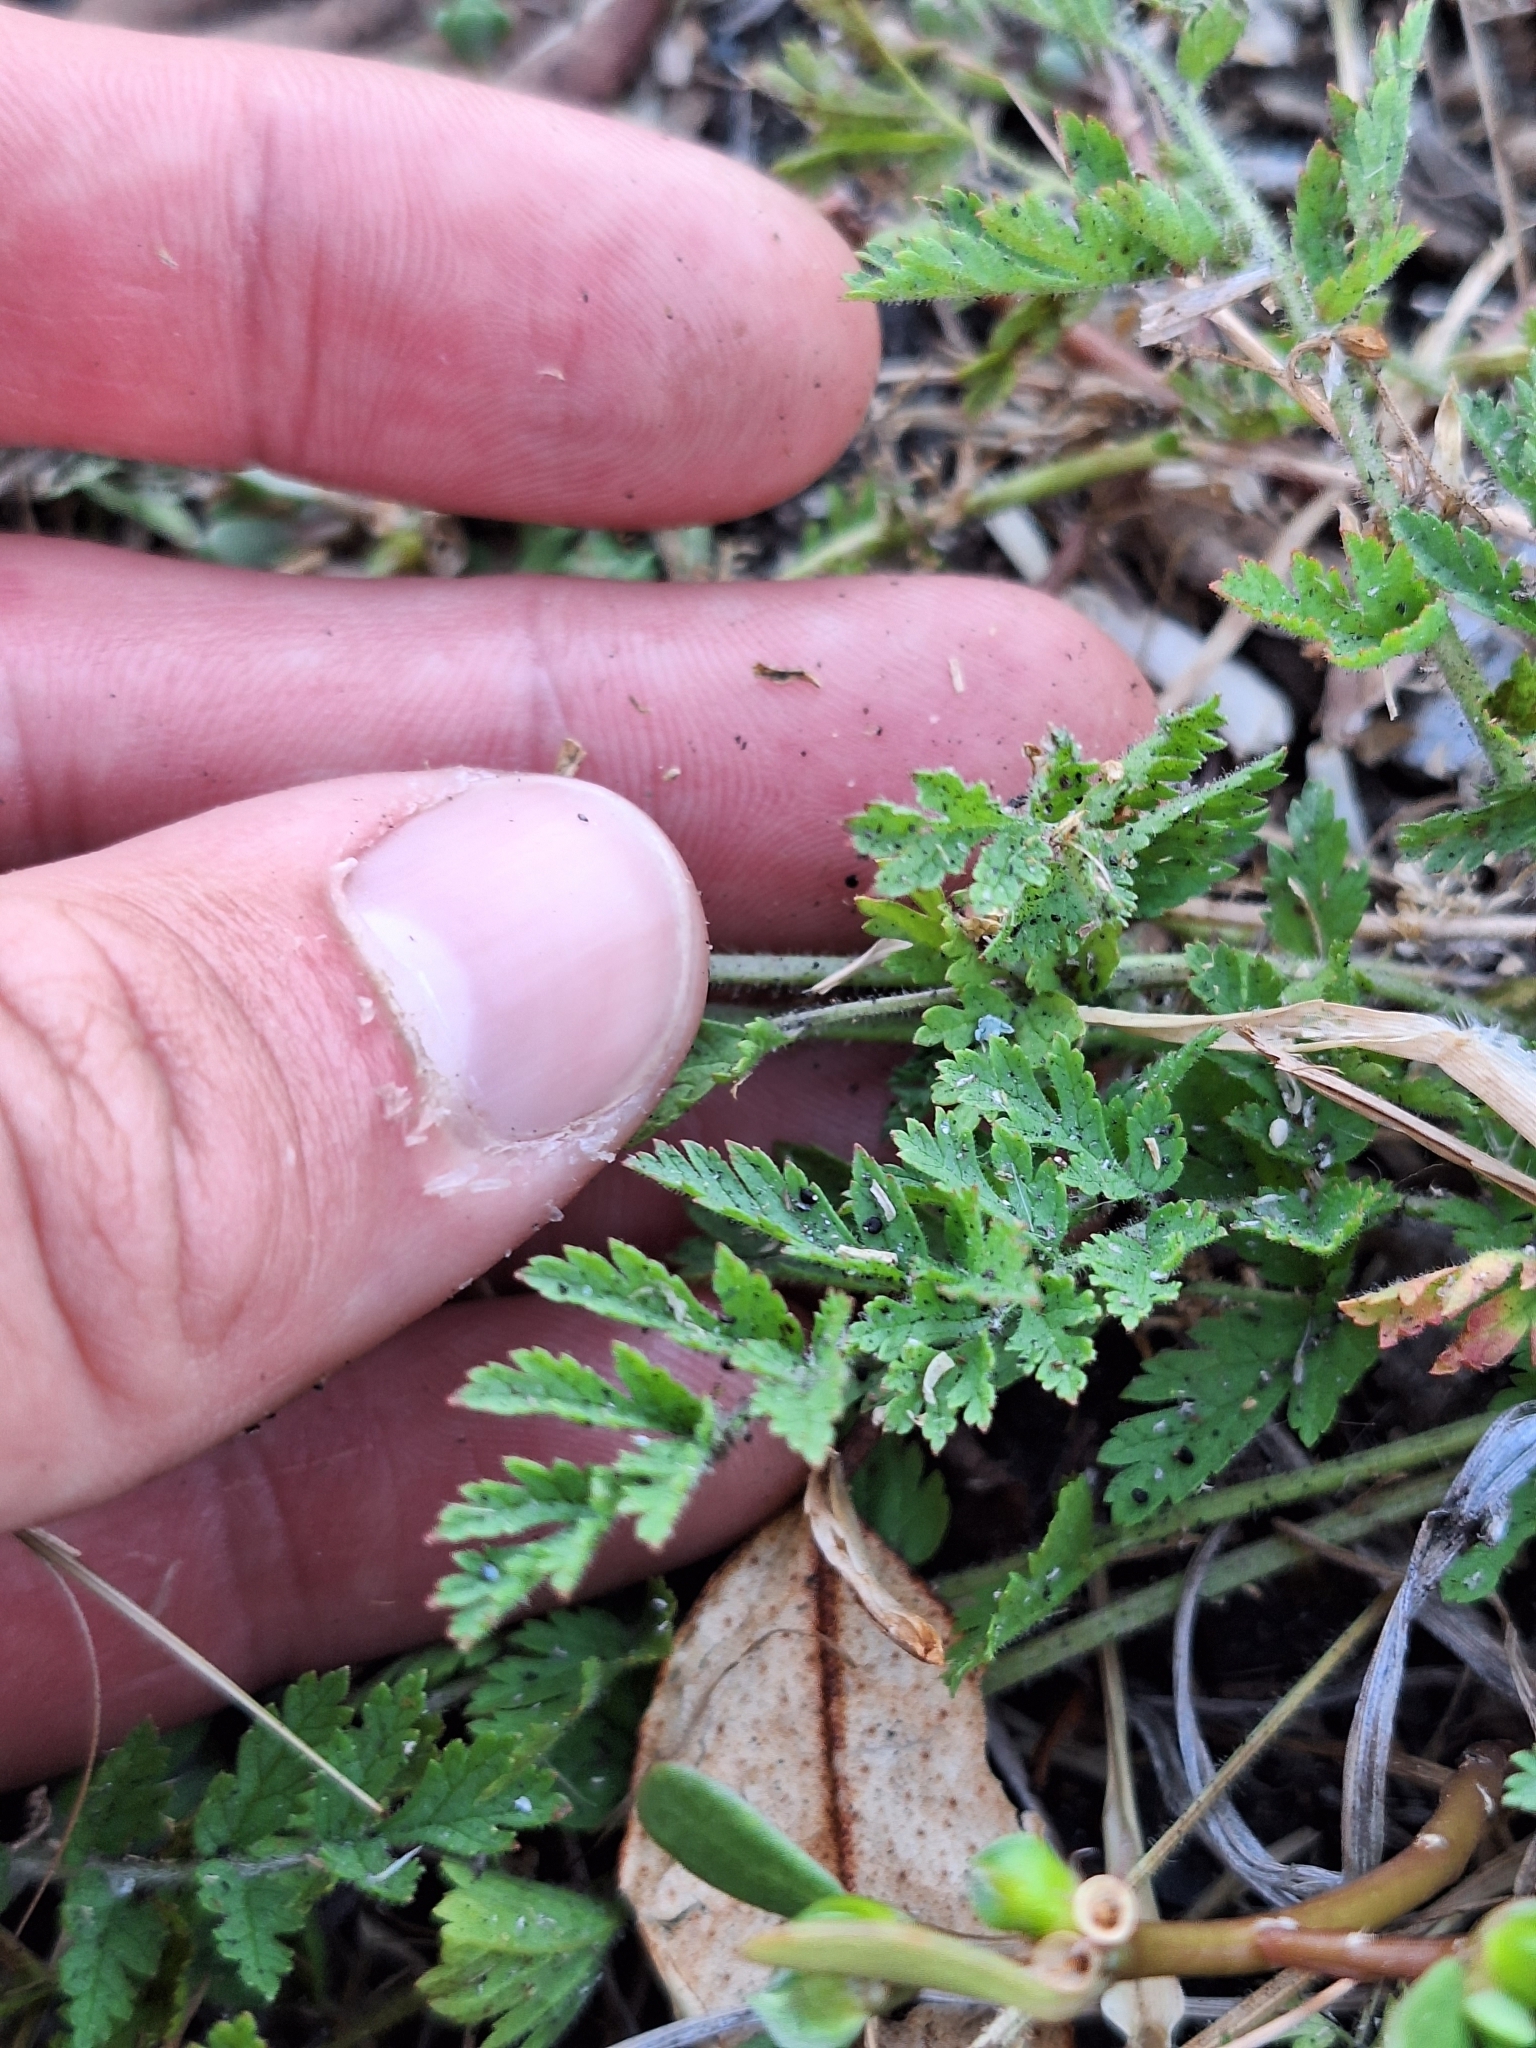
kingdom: Plantae
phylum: Tracheophyta
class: Magnoliopsida
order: Geraniales
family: Geraniaceae
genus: Erodium
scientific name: Erodium moschatum
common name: Musk stork's-bill
